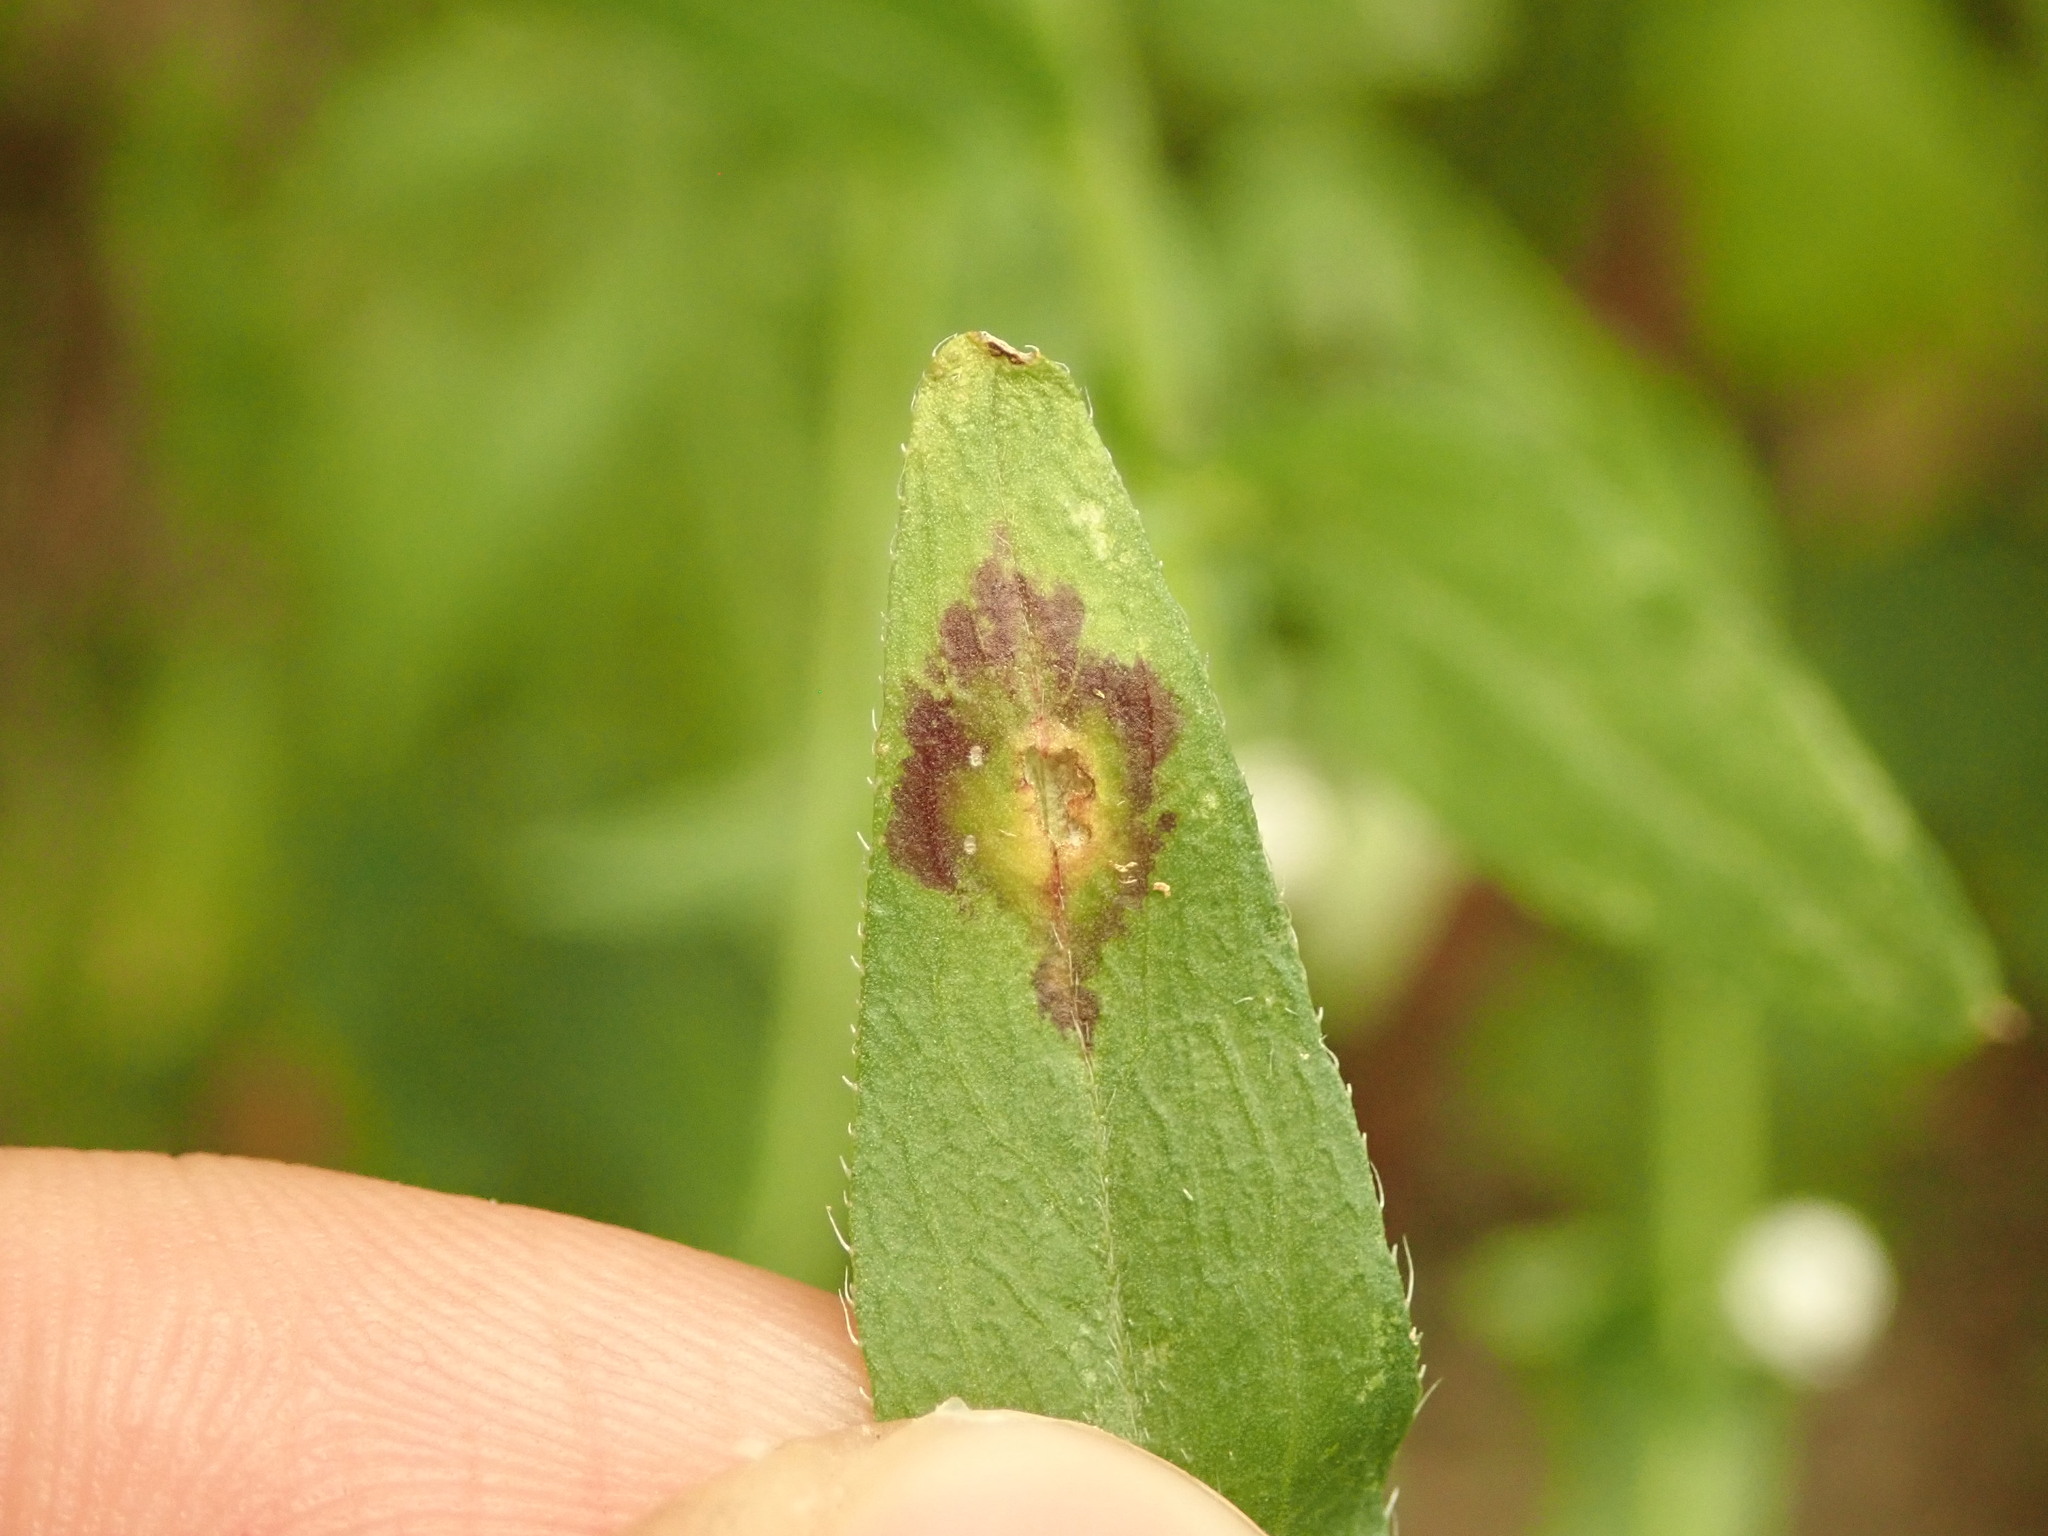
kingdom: Animalia
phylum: Arthropoda
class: Insecta
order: Diptera
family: Cecidomyiidae
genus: Asteromyia
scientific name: Asteromyia modesta
